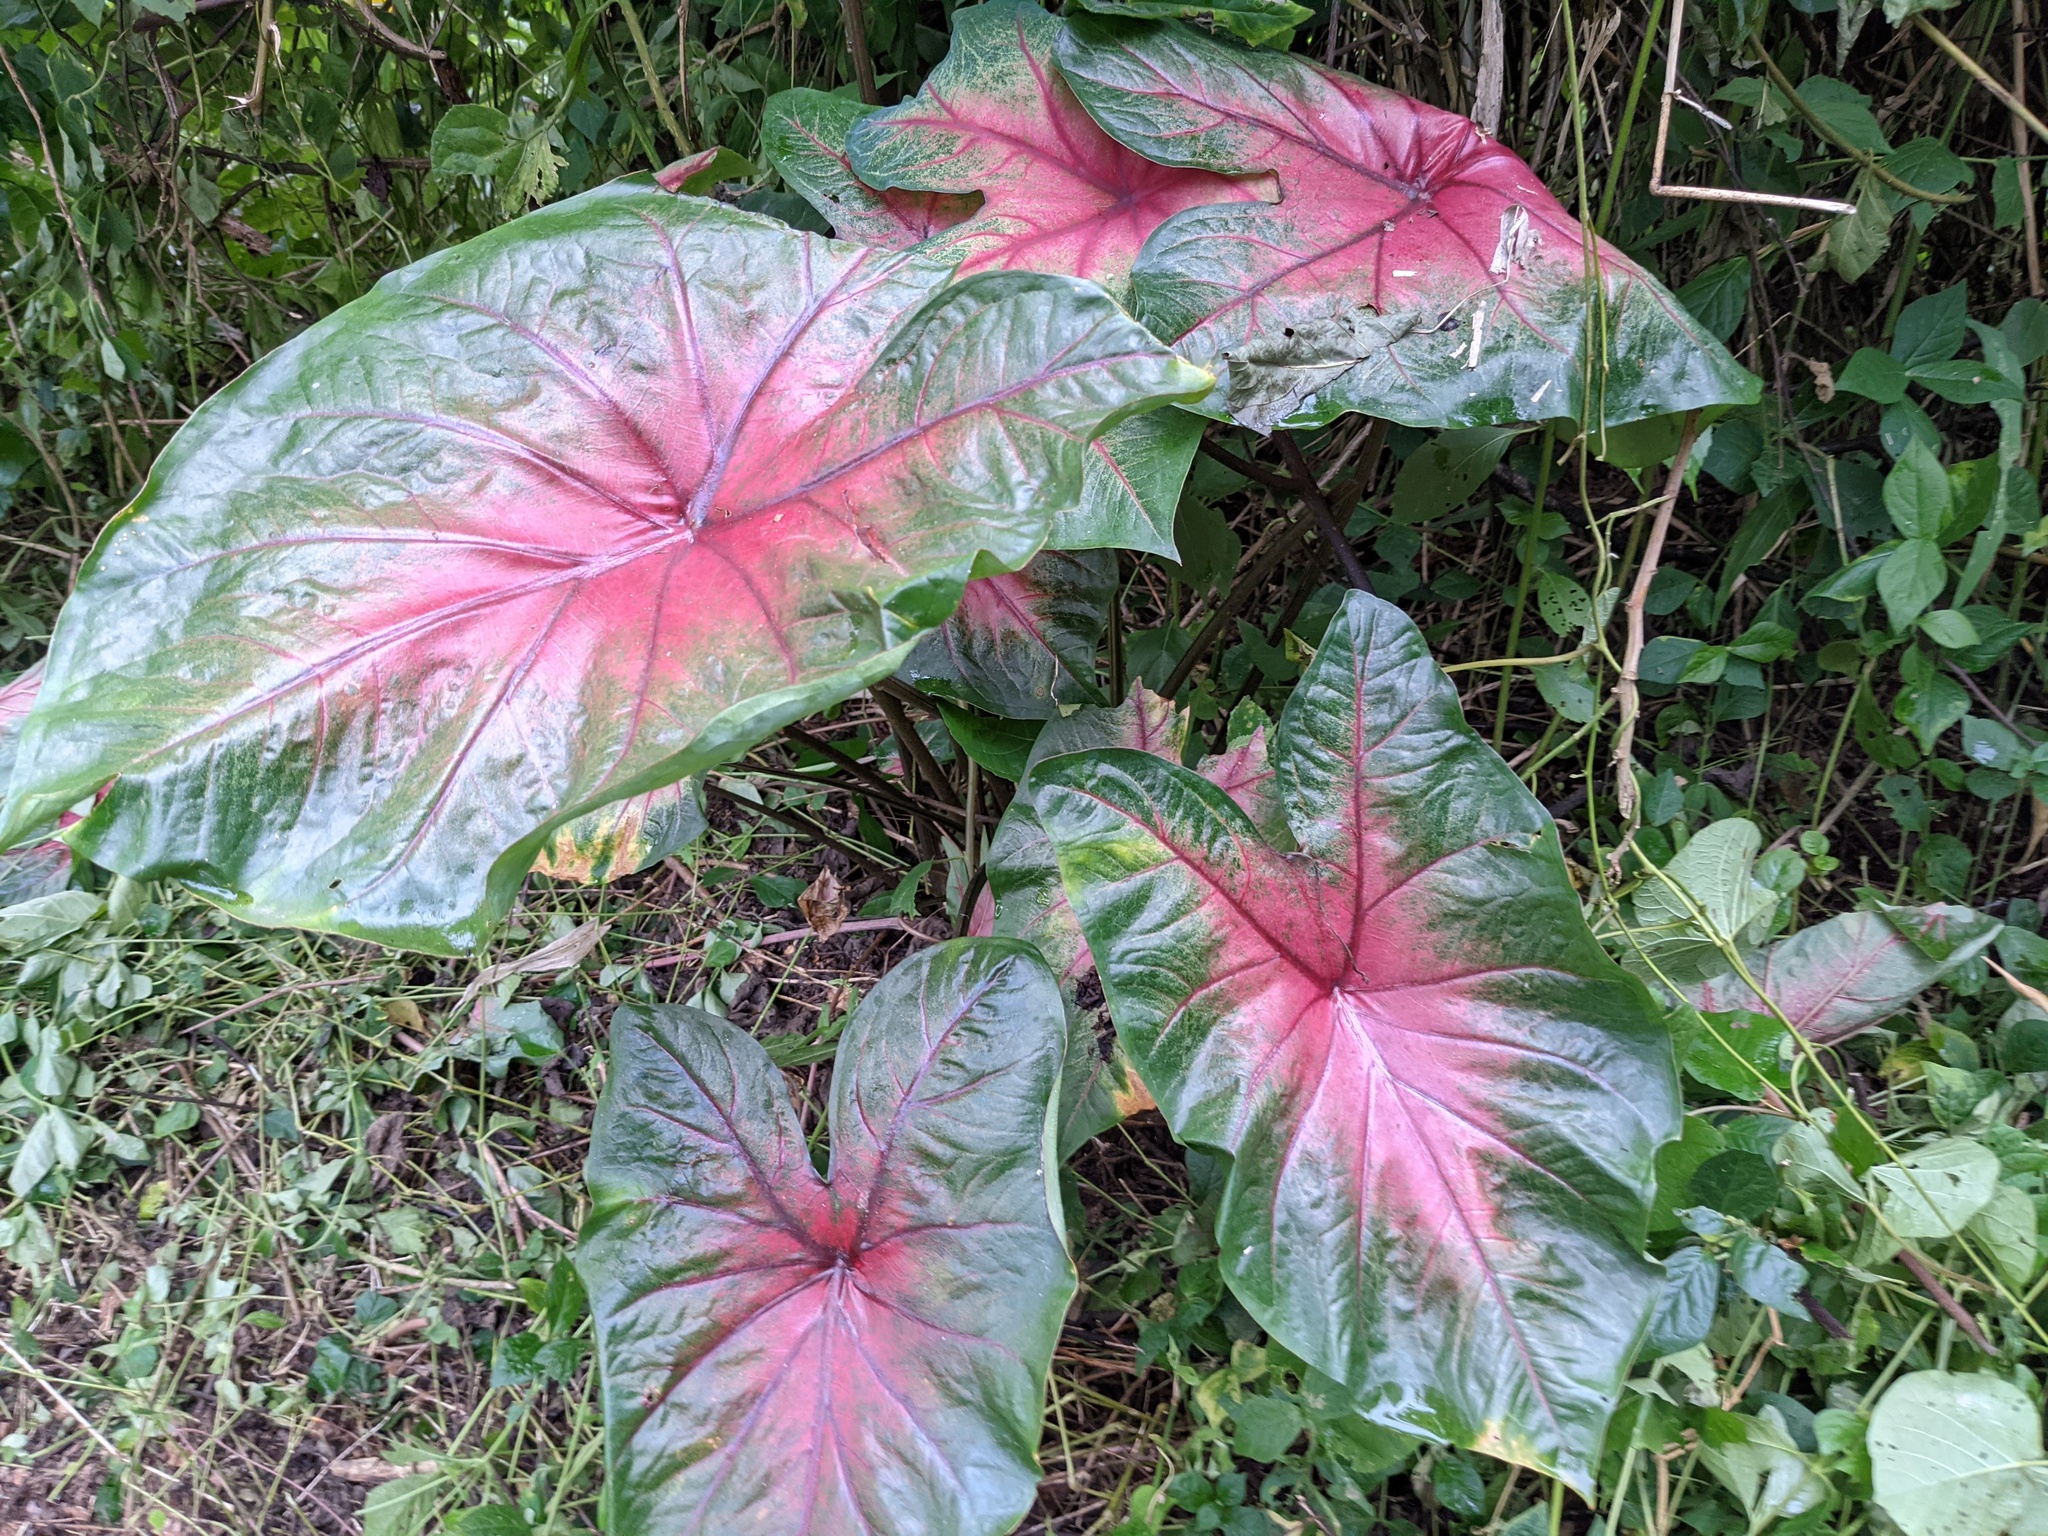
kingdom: Plantae
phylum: Tracheophyta
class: Liliopsida
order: Alismatales
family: Araceae
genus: Caladium
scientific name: Caladium bicolor
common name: Artist's pallet
